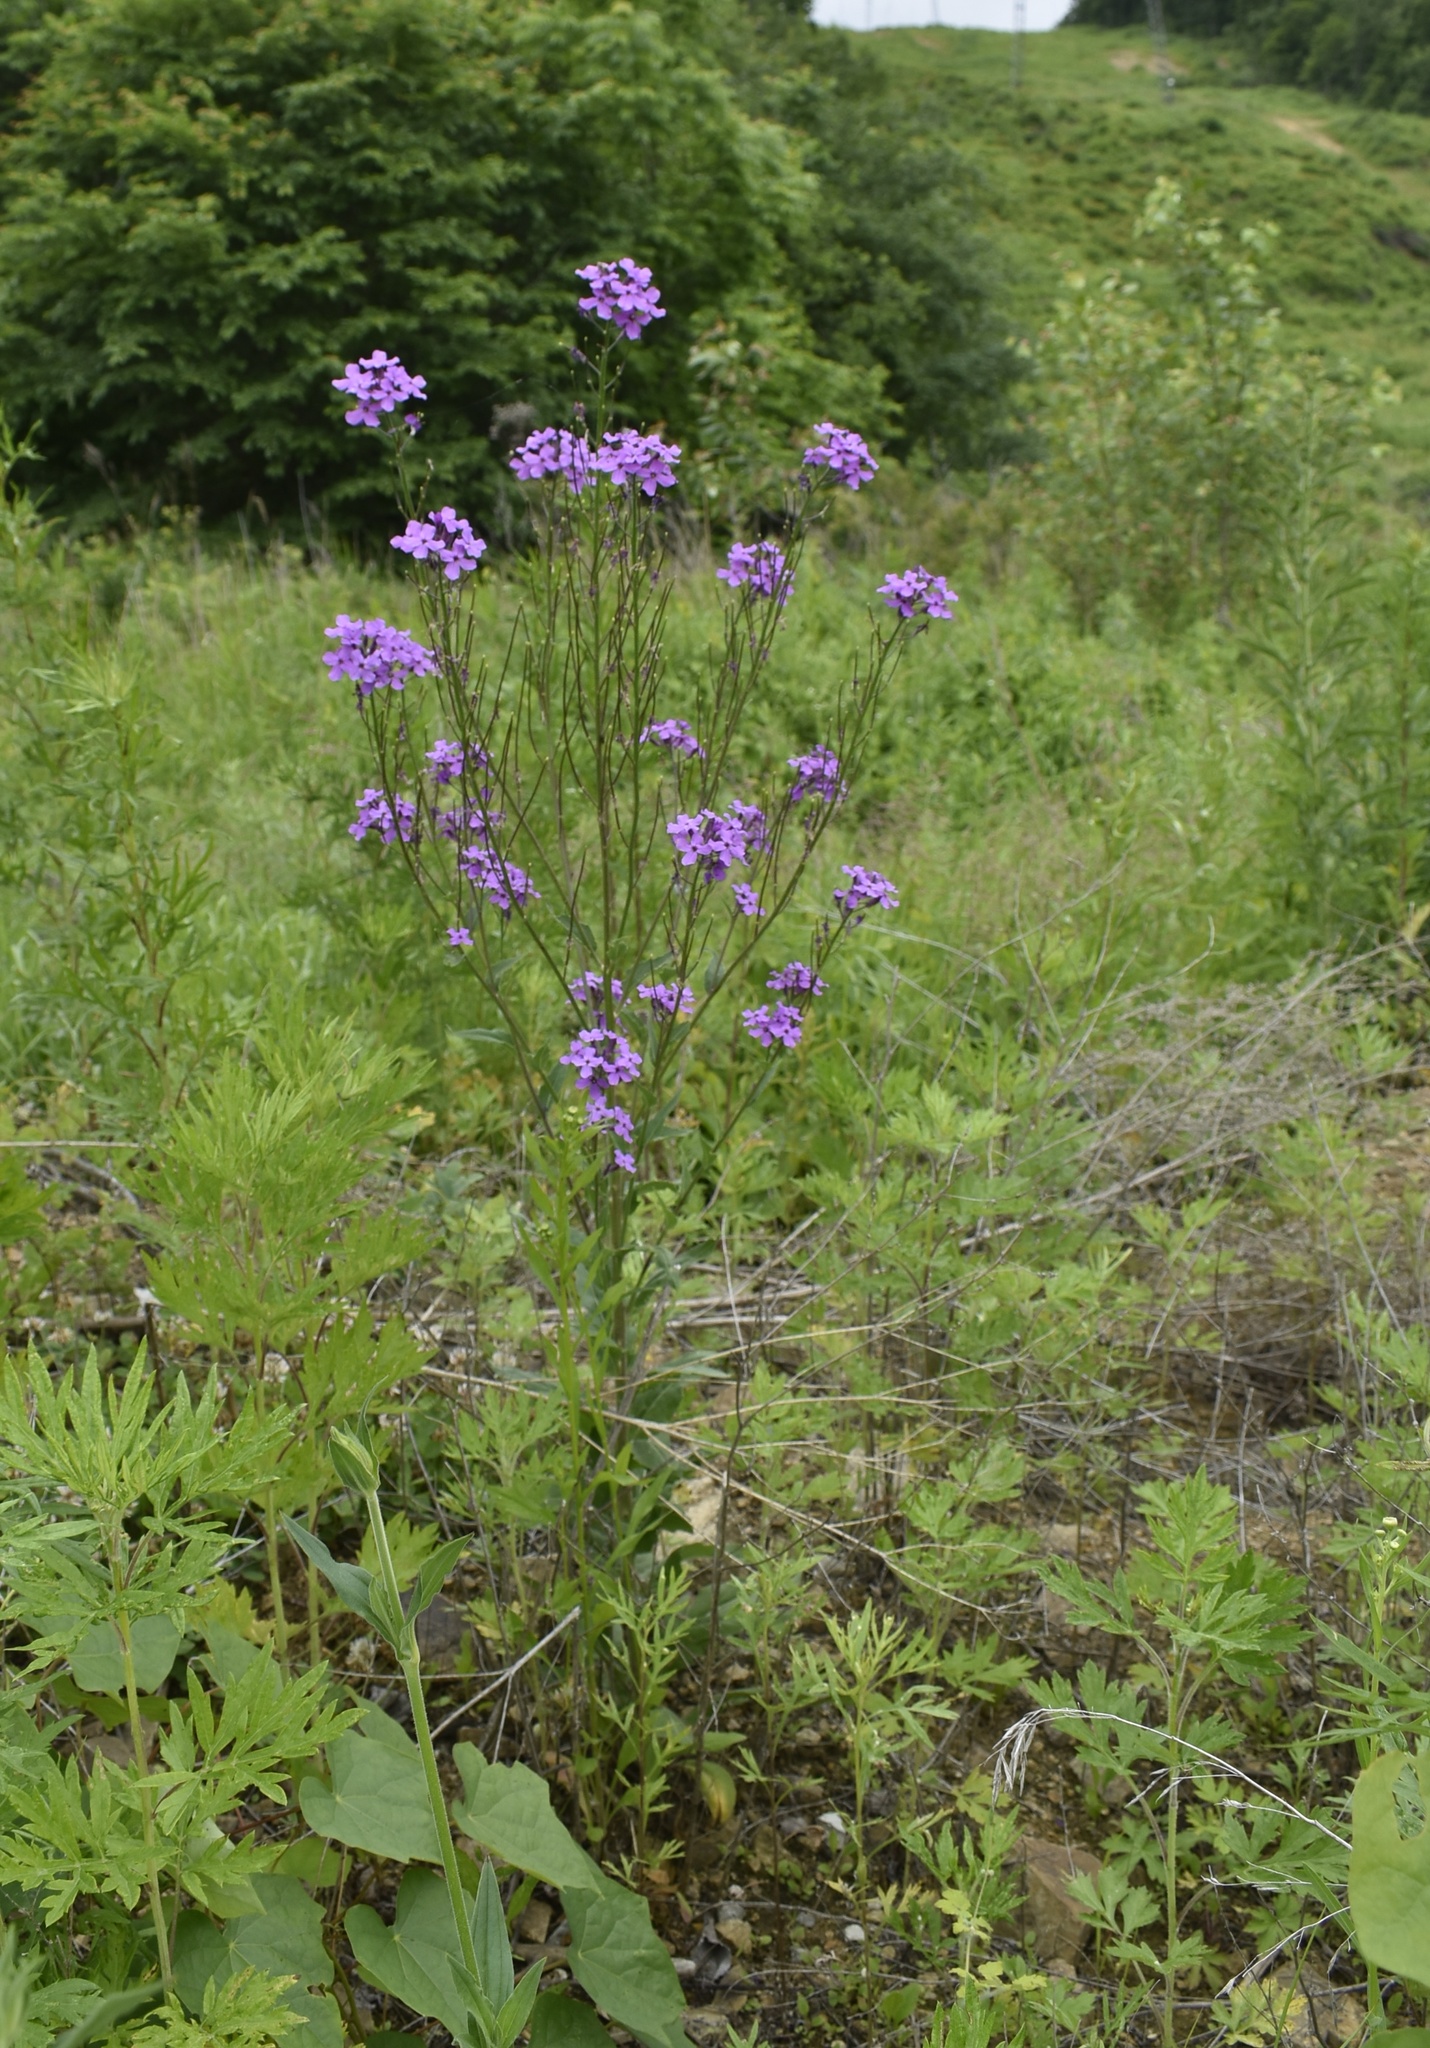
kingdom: Plantae
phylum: Tracheophyta
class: Magnoliopsida
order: Brassicales
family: Brassicaceae
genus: Hesperis
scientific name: Hesperis matronalis
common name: Dame's-violet
